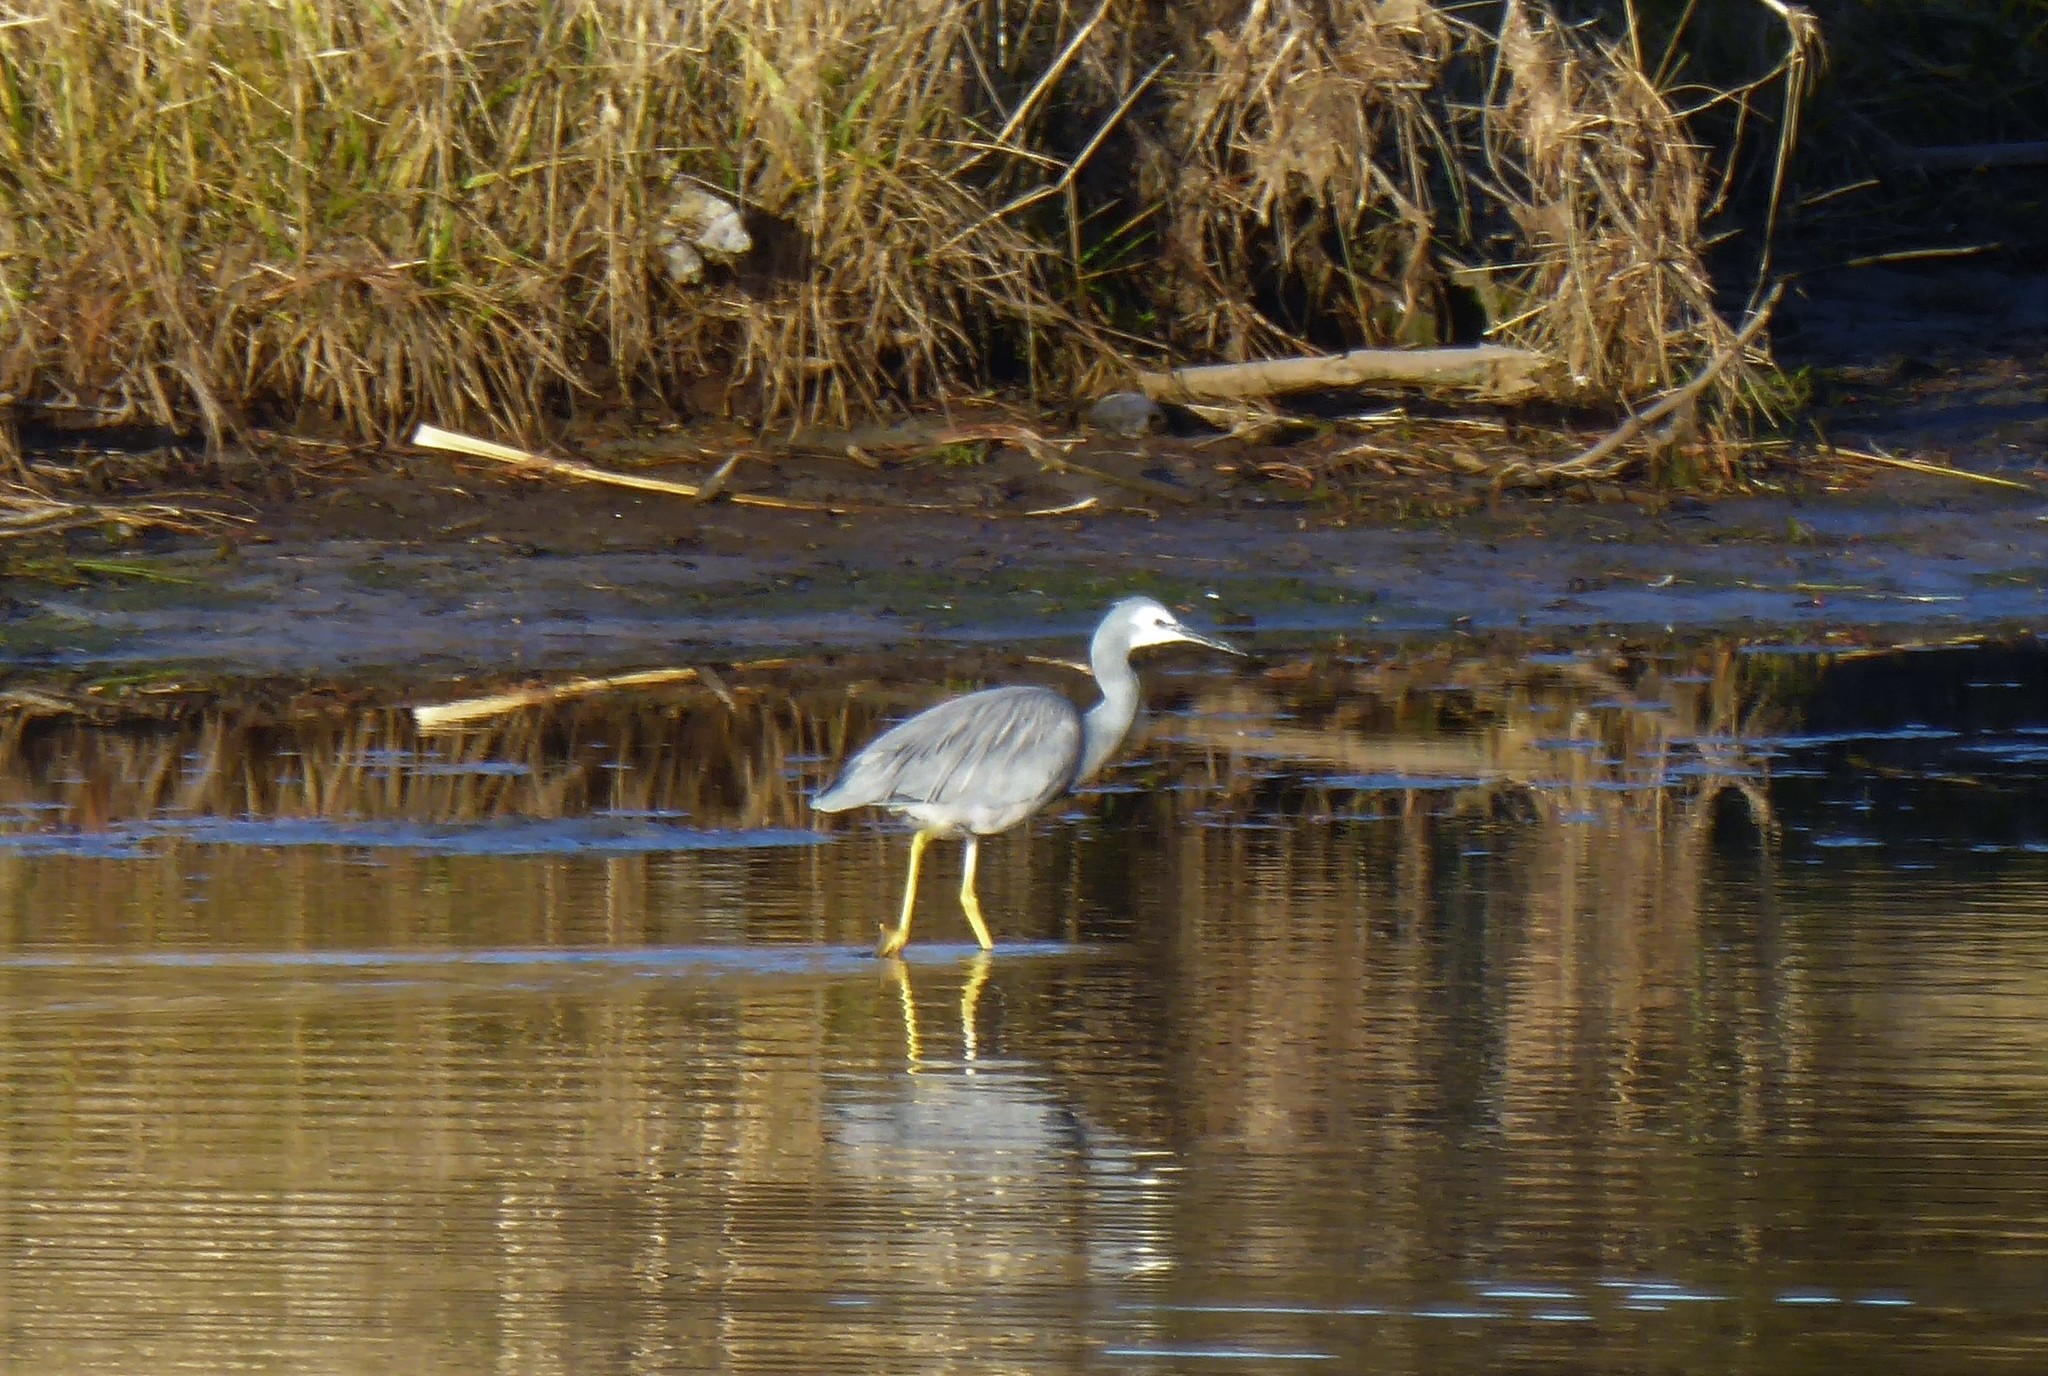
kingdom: Animalia
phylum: Chordata
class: Aves
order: Pelecaniformes
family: Ardeidae
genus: Egretta
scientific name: Egretta novaehollandiae
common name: White-faced heron
